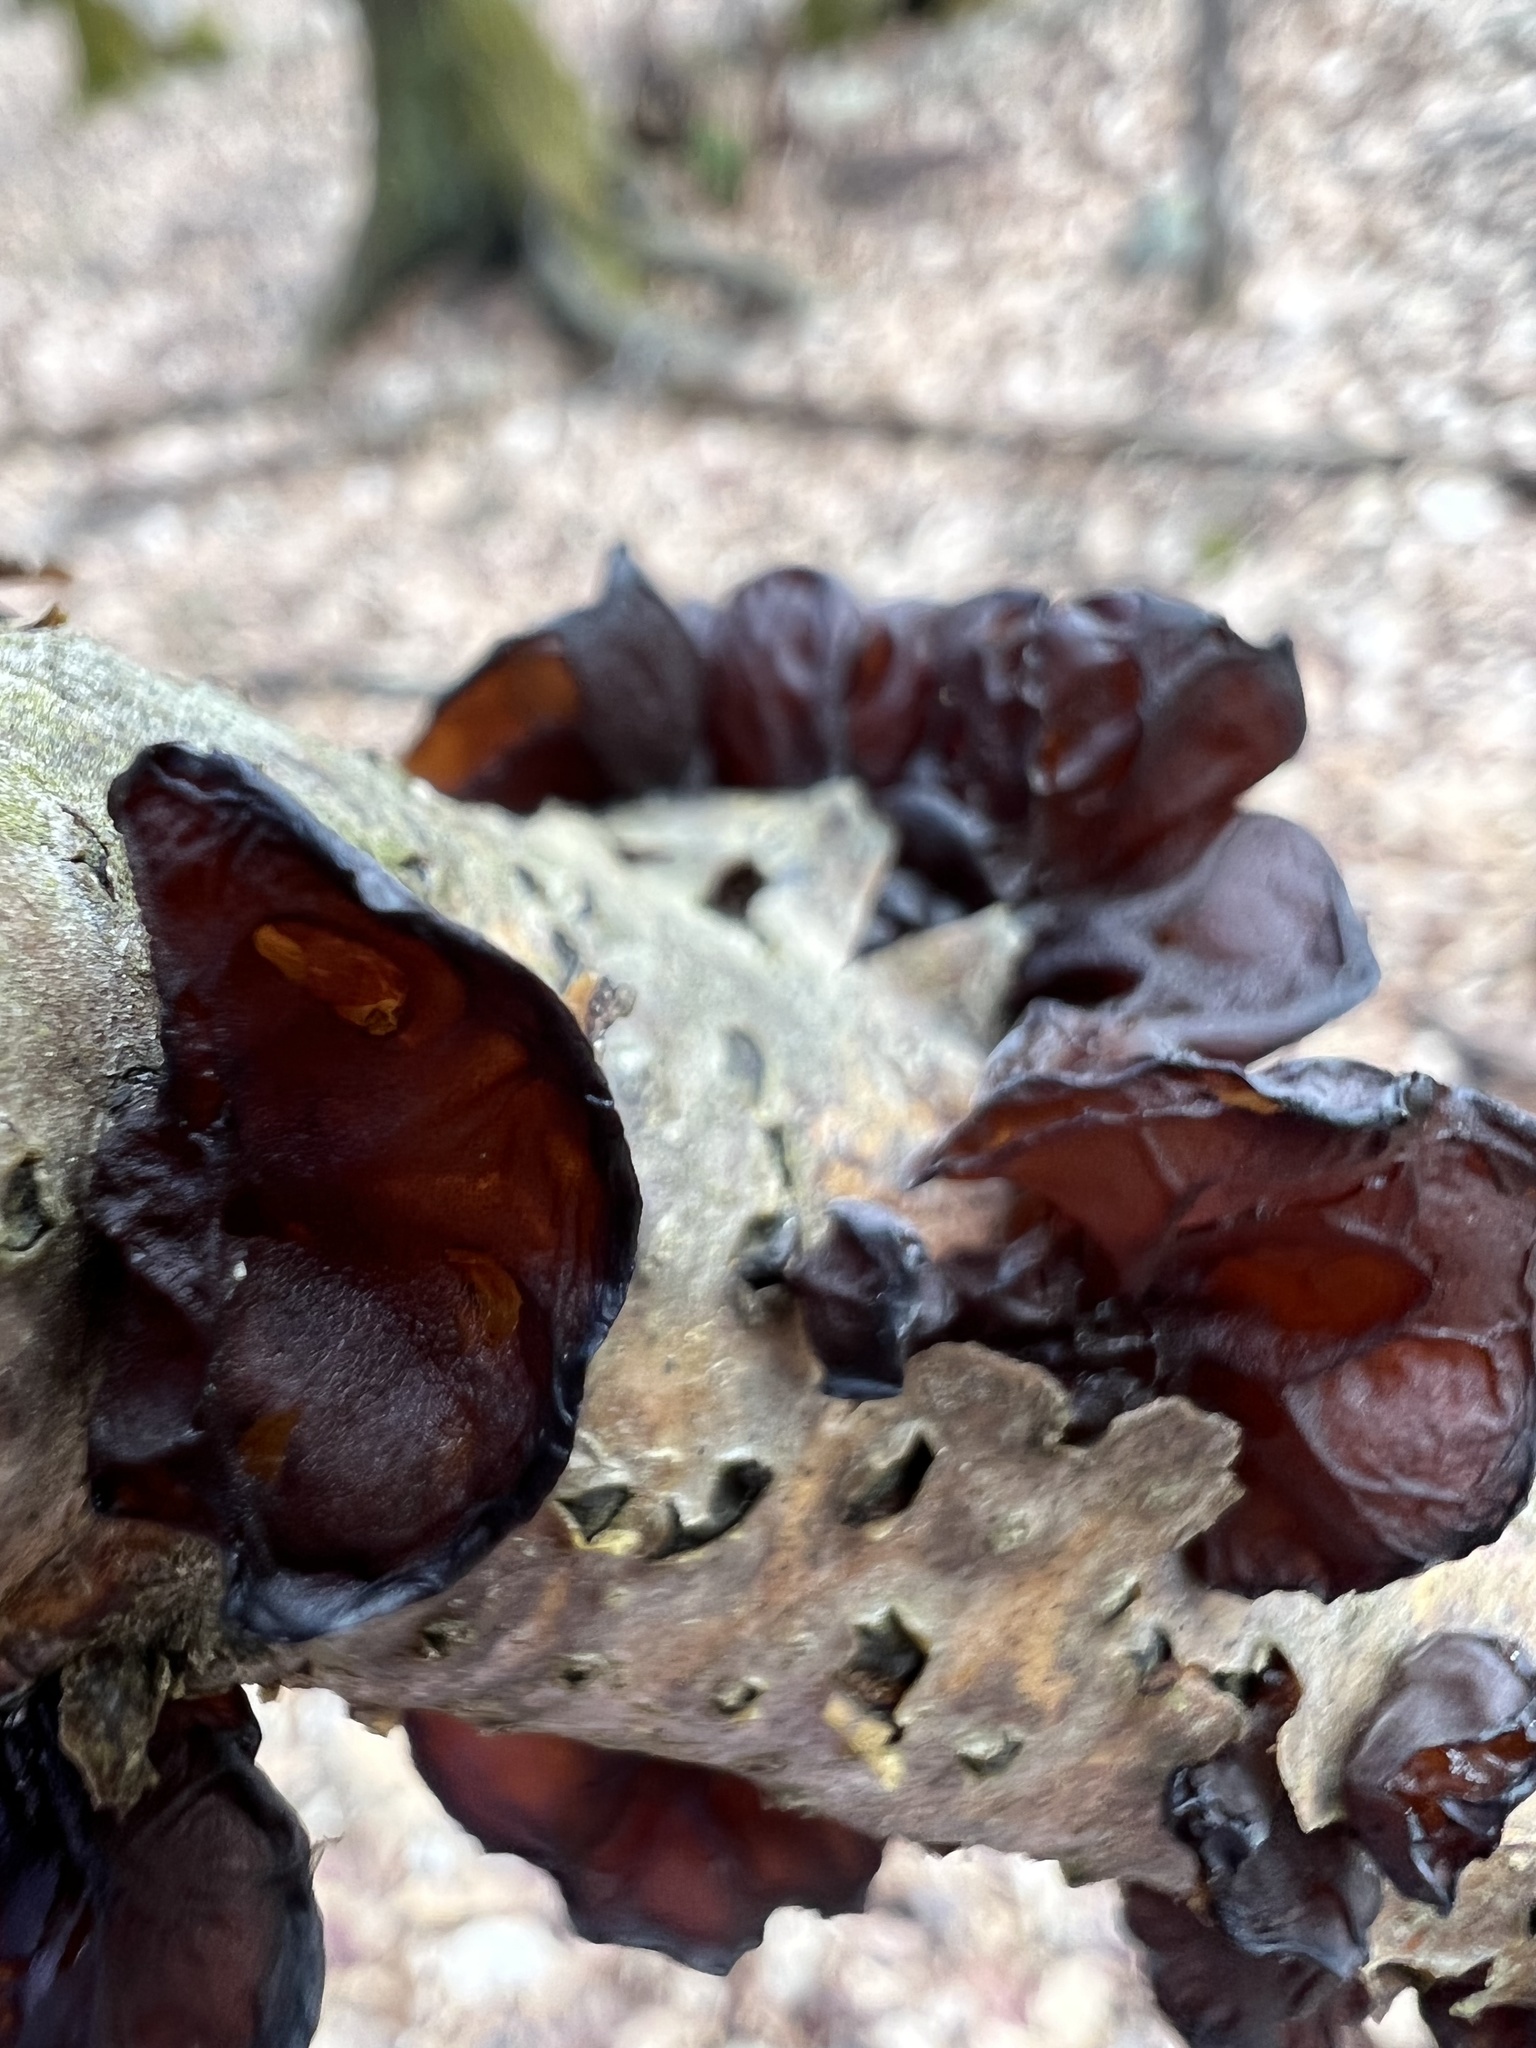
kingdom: Fungi
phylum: Basidiomycota
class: Agaricomycetes
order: Auriculariales
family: Auriculariaceae
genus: Exidia
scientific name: Exidia
